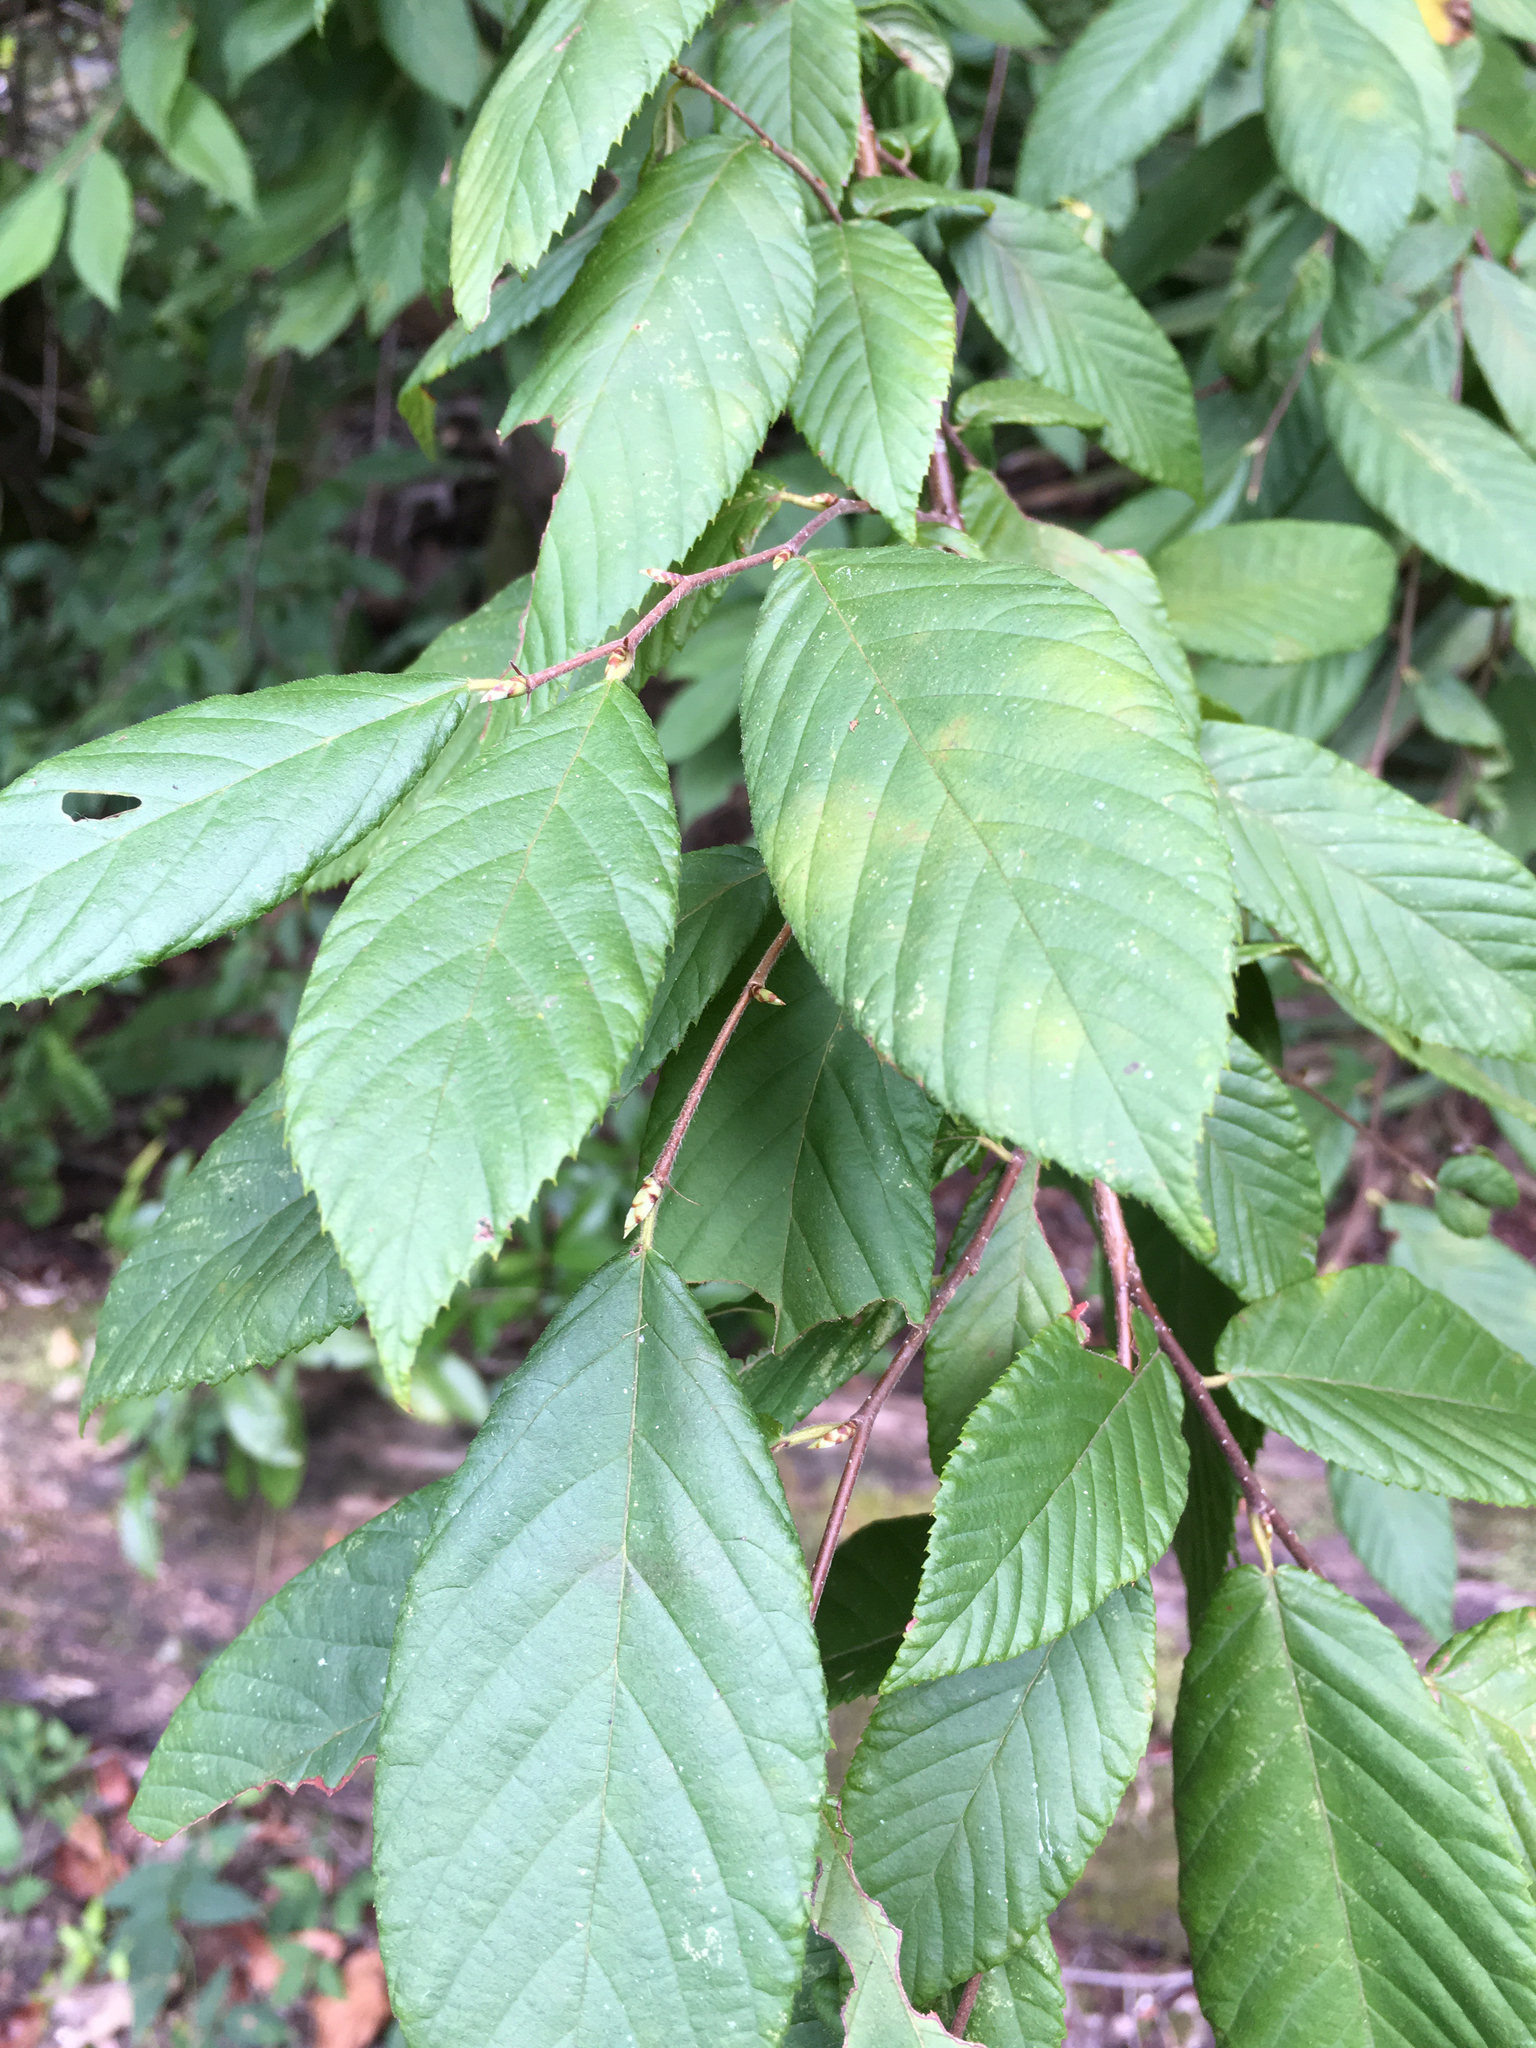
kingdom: Plantae
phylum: Tracheophyta
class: Magnoliopsida
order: Fagales
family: Betulaceae
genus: Ostrya
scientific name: Ostrya virginiana
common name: Ironwood
